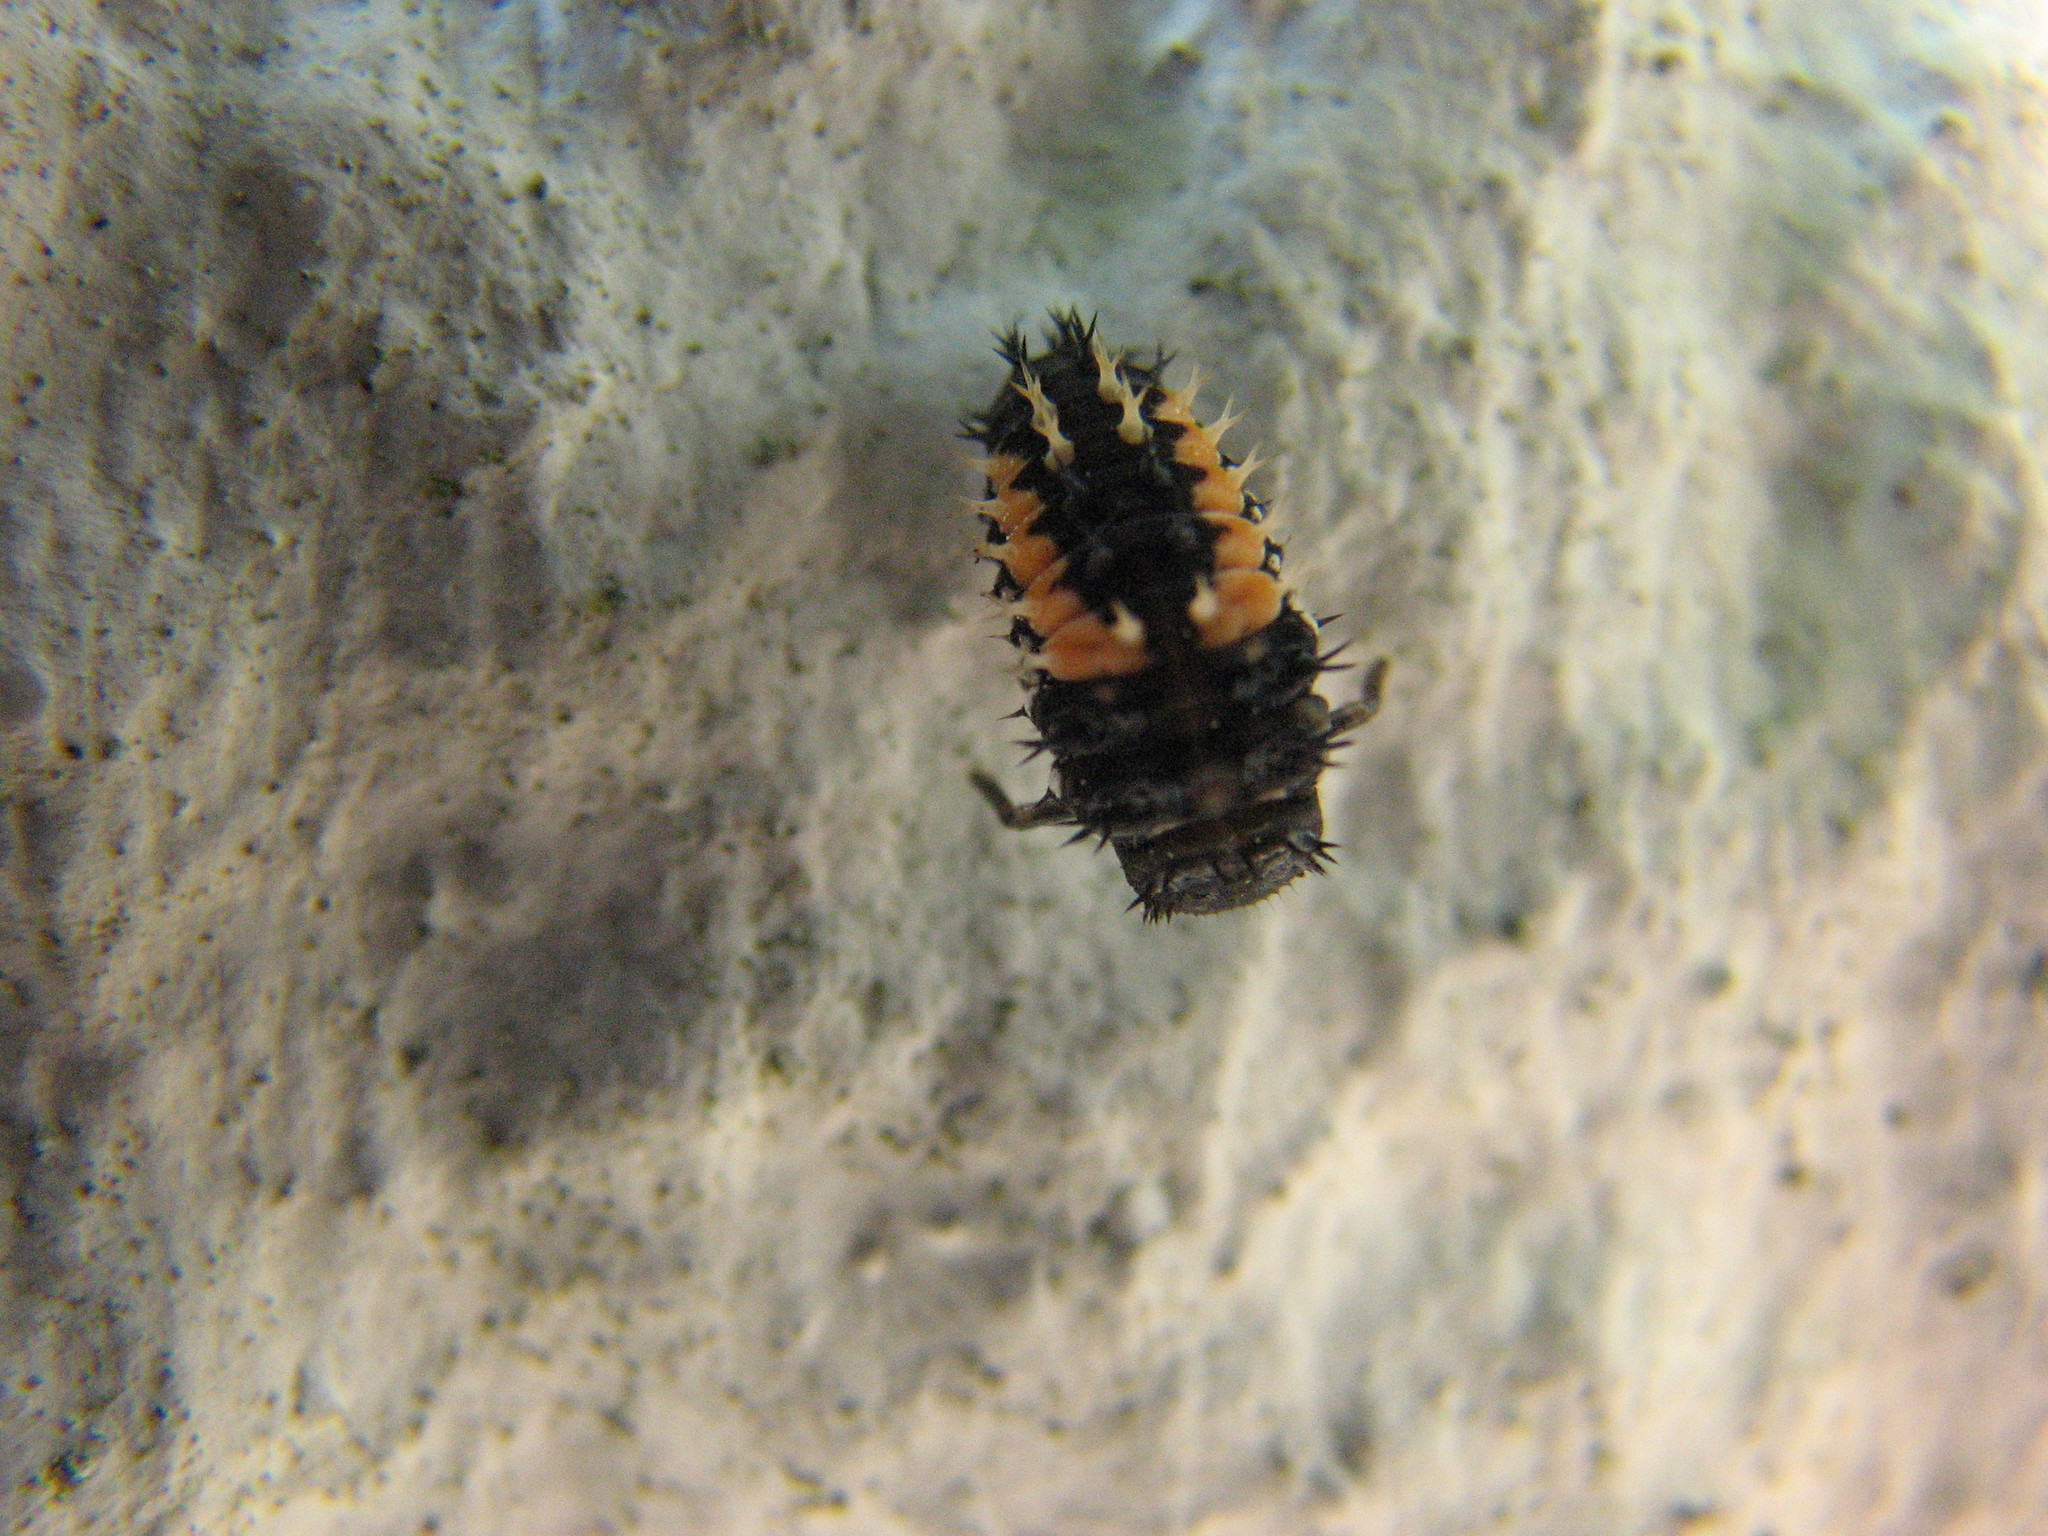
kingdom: Animalia
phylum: Arthropoda
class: Insecta
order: Coleoptera
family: Coccinellidae
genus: Harmonia
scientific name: Harmonia axyridis
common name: Harlequin ladybird
